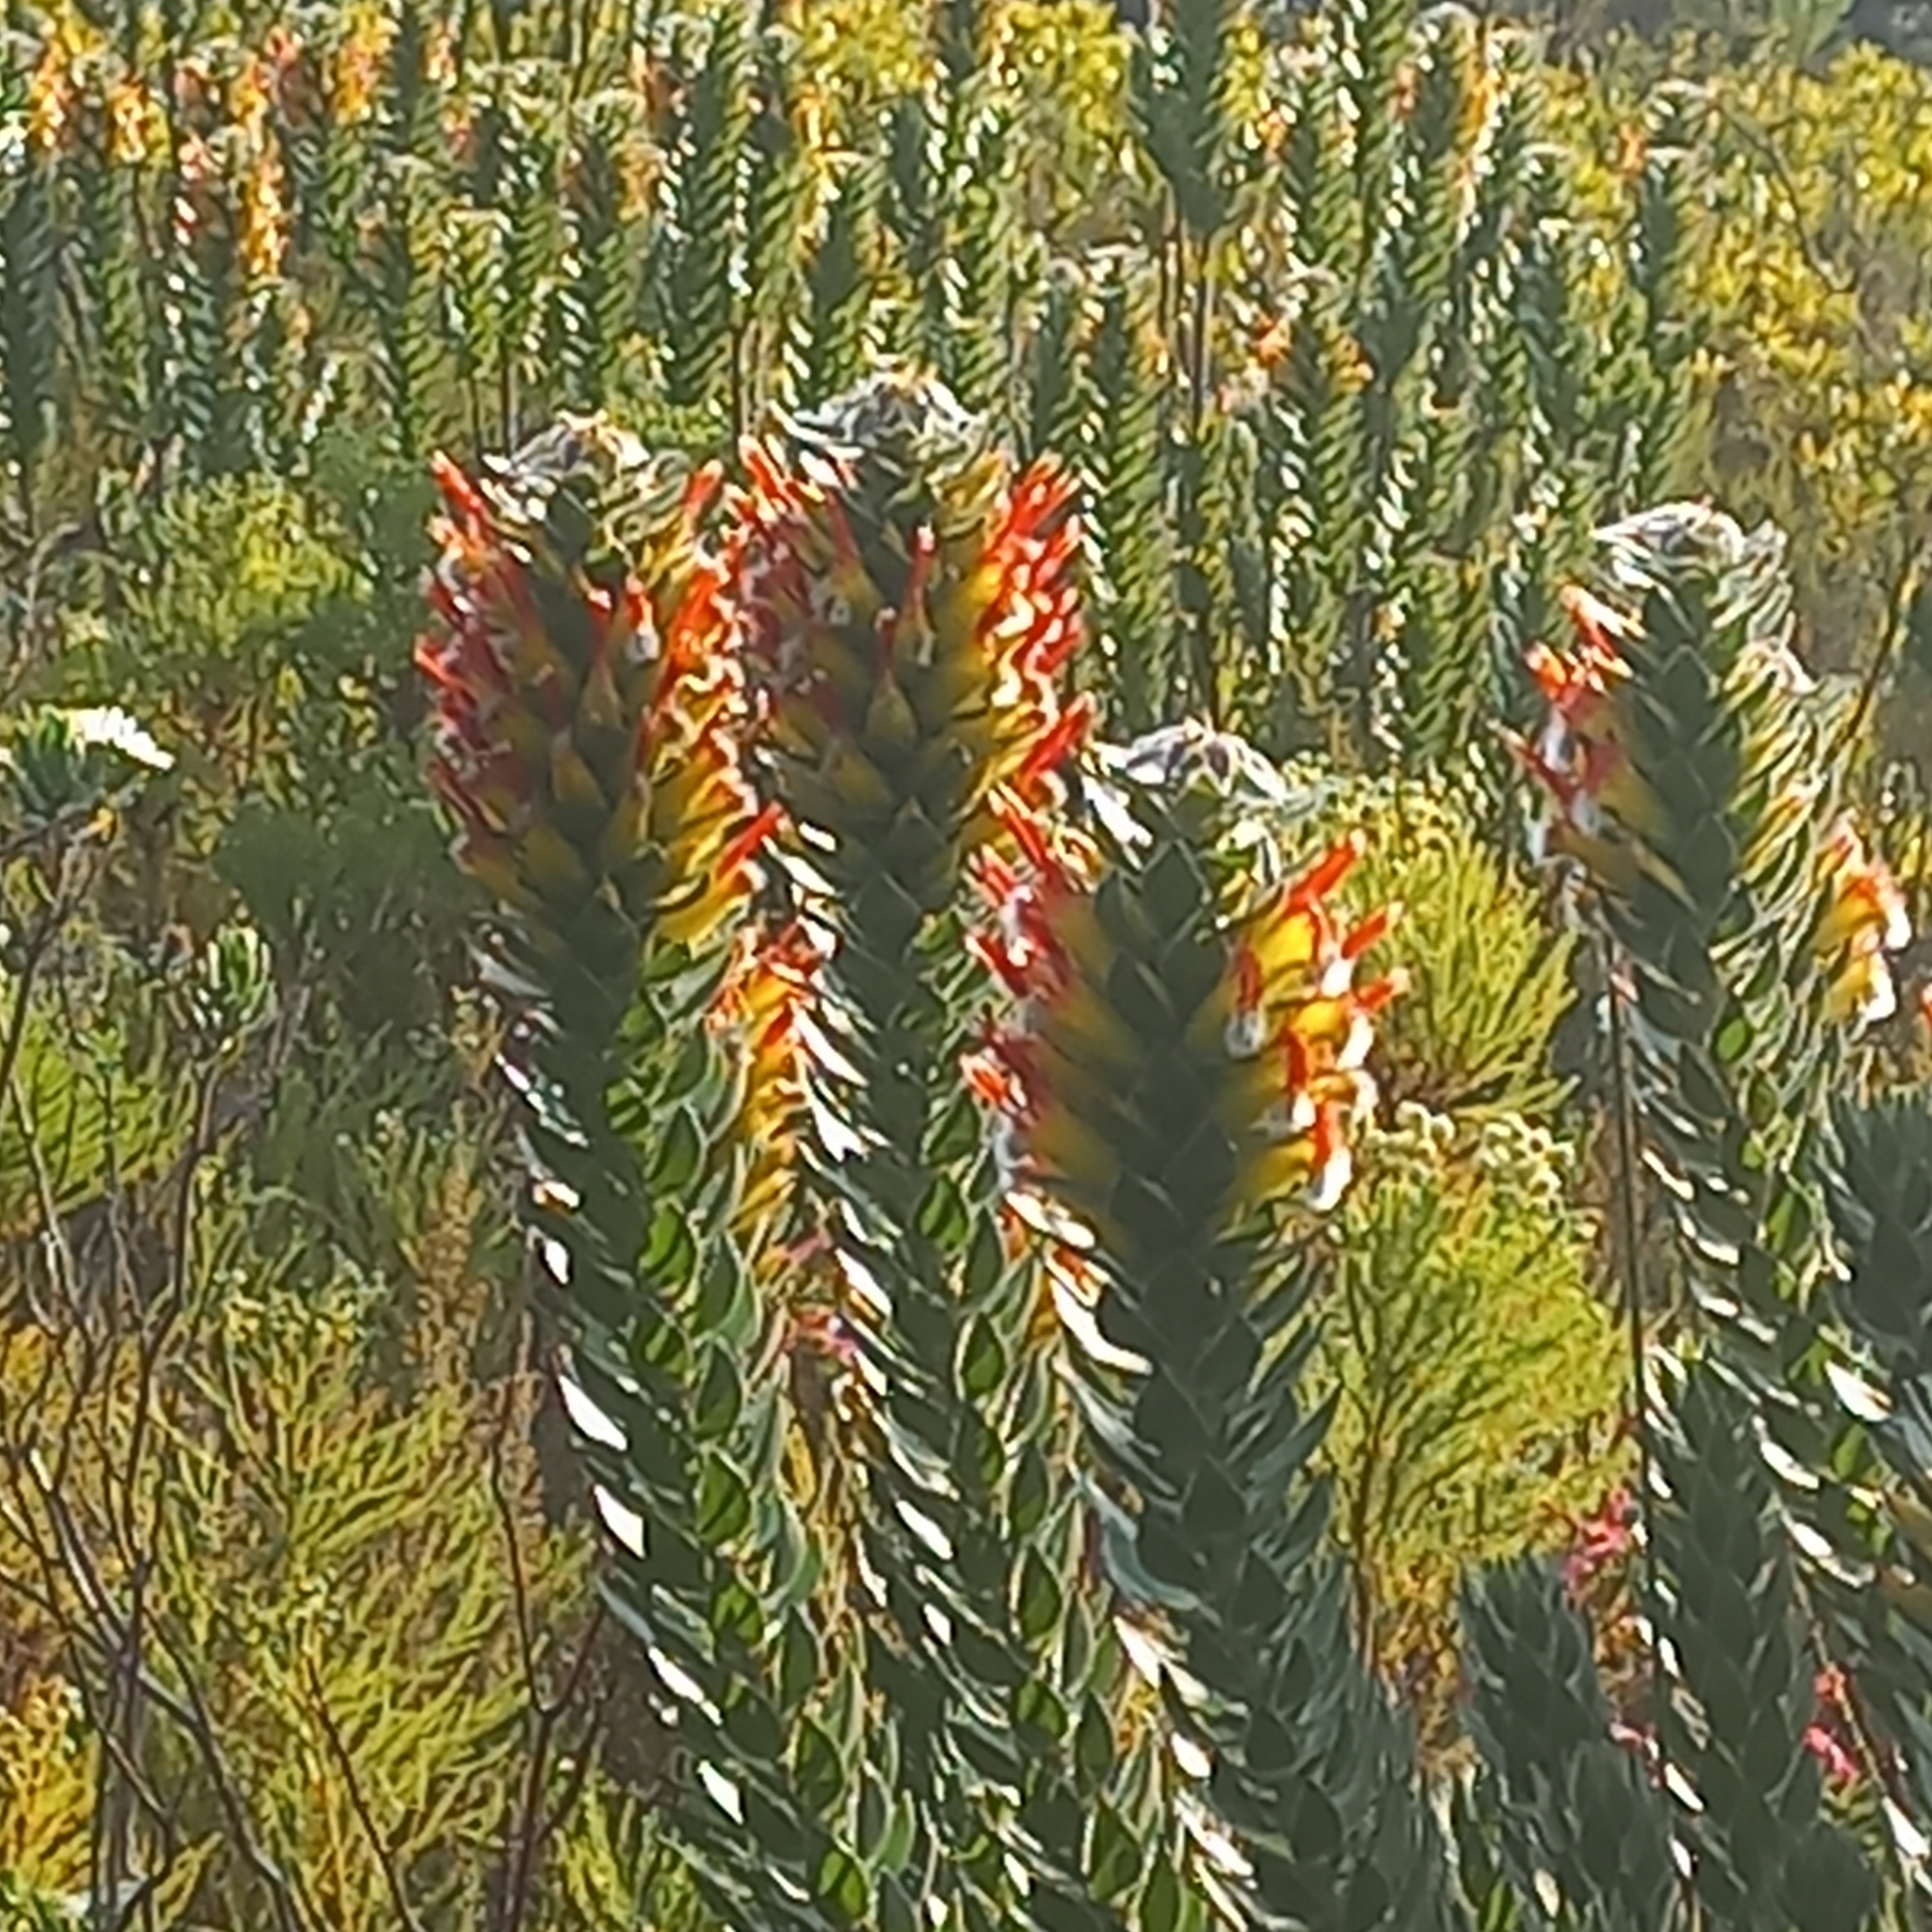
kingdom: Plantae
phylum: Tracheophyta
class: Magnoliopsida
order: Proteales
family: Proteaceae
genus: Mimetes
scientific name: Mimetes hirtus
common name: Marsh pagoda
